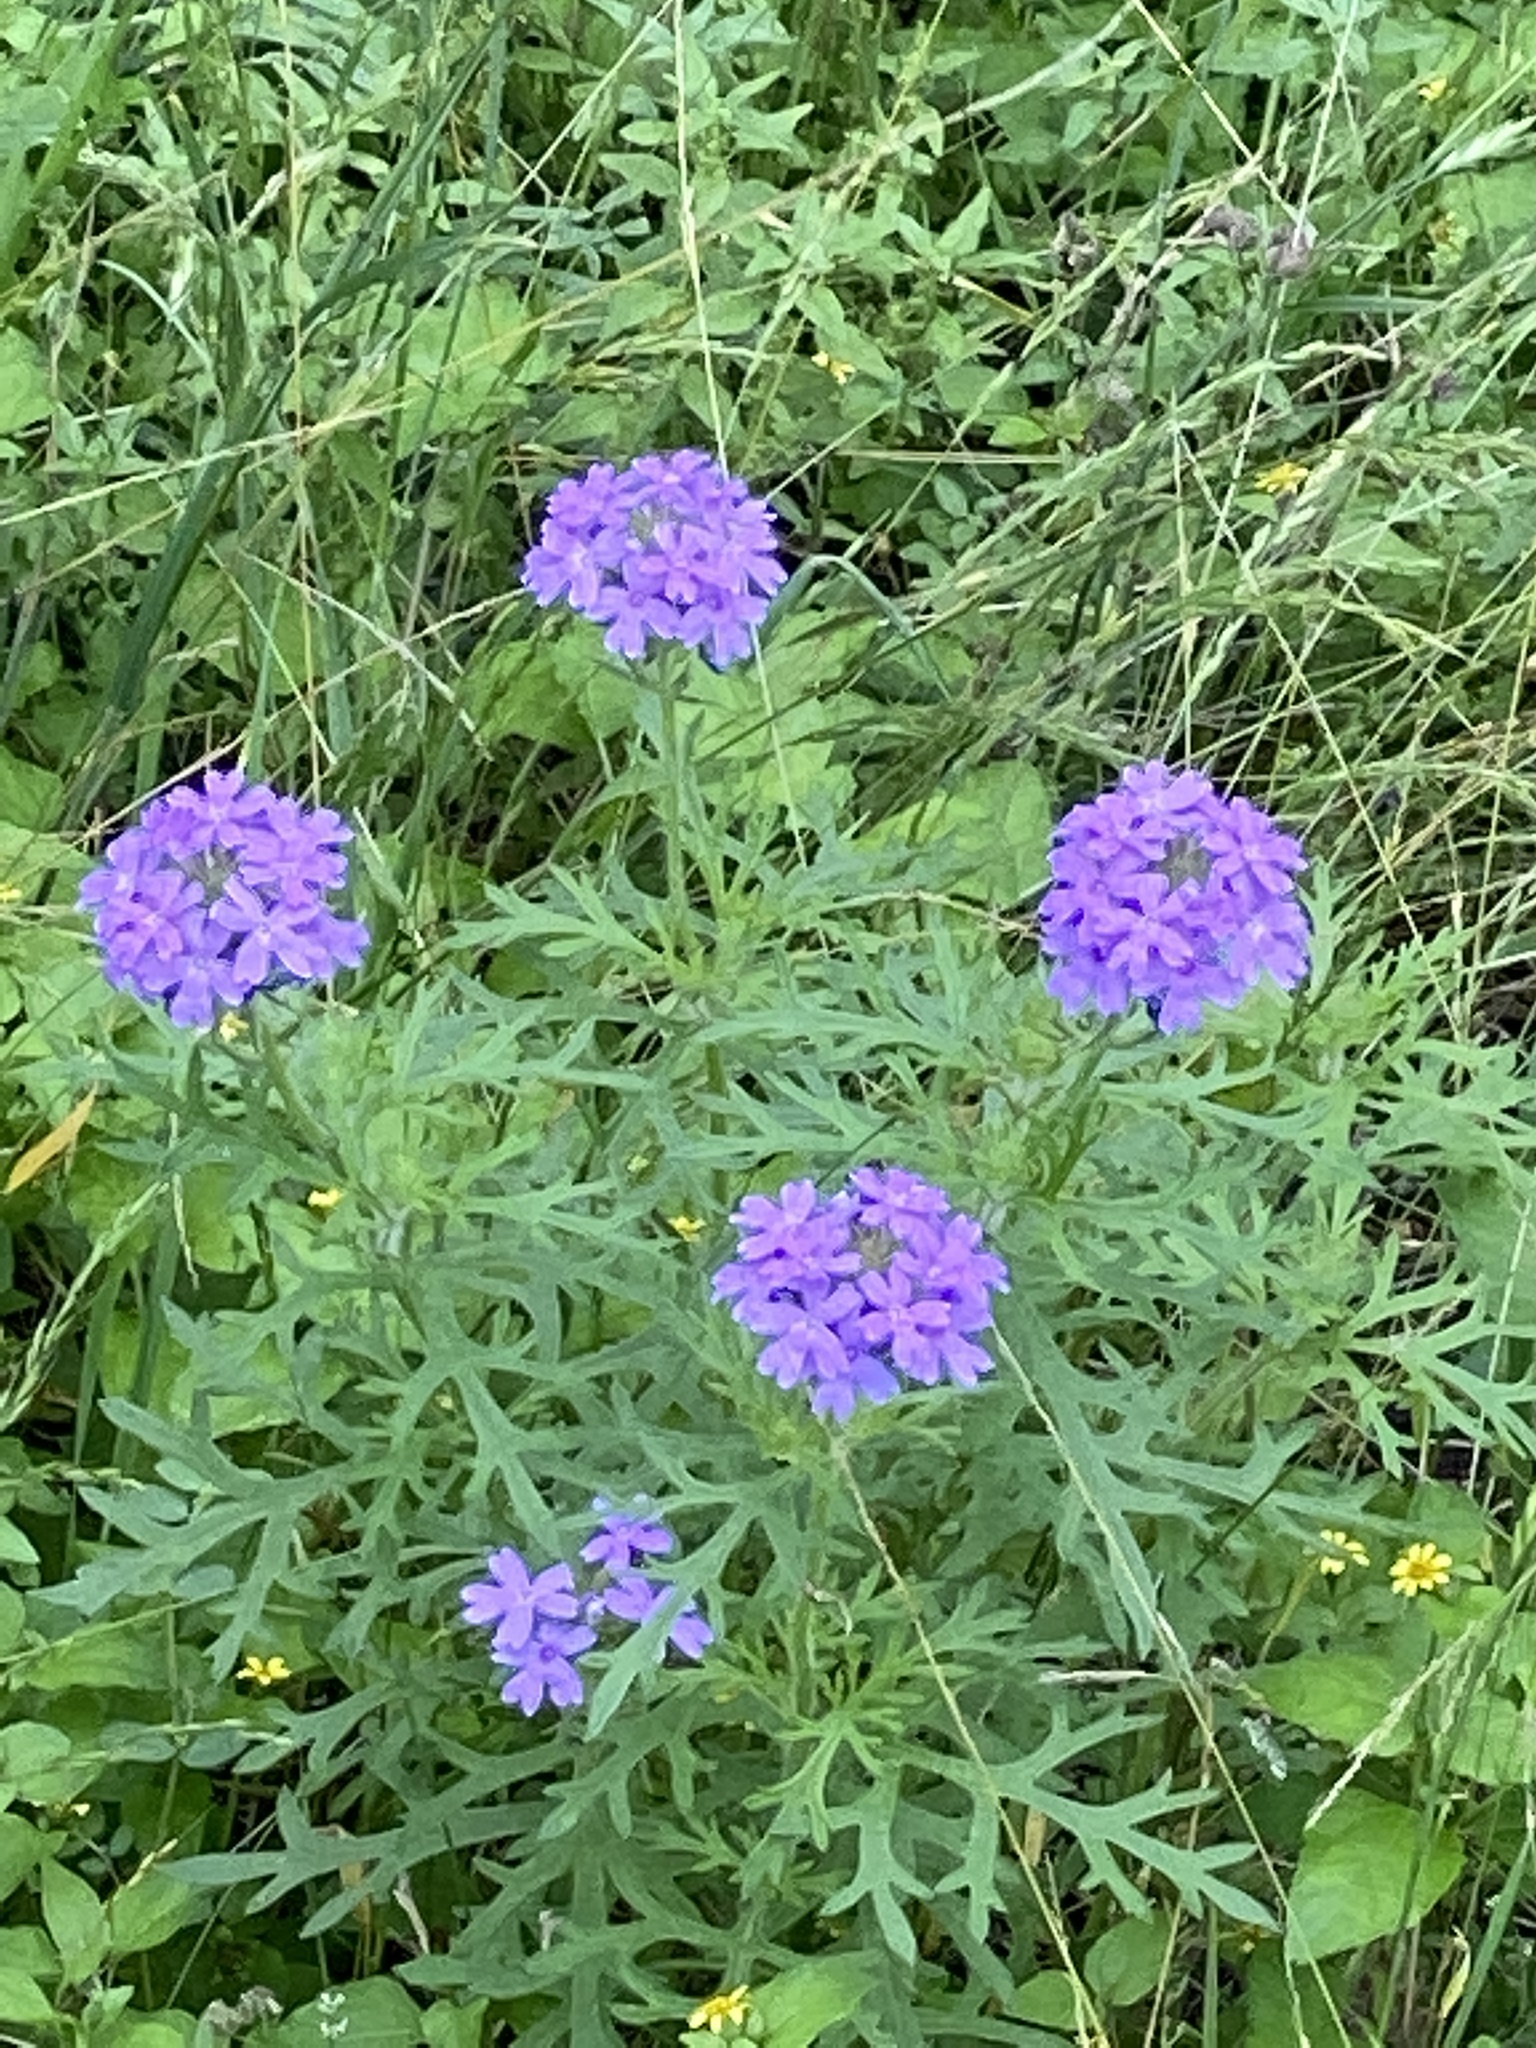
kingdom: Plantae
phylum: Tracheophyta
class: Magnoliopsida
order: Lamiales
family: Verbenaceae
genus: Verbena
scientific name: Verbena bipinnatifida
